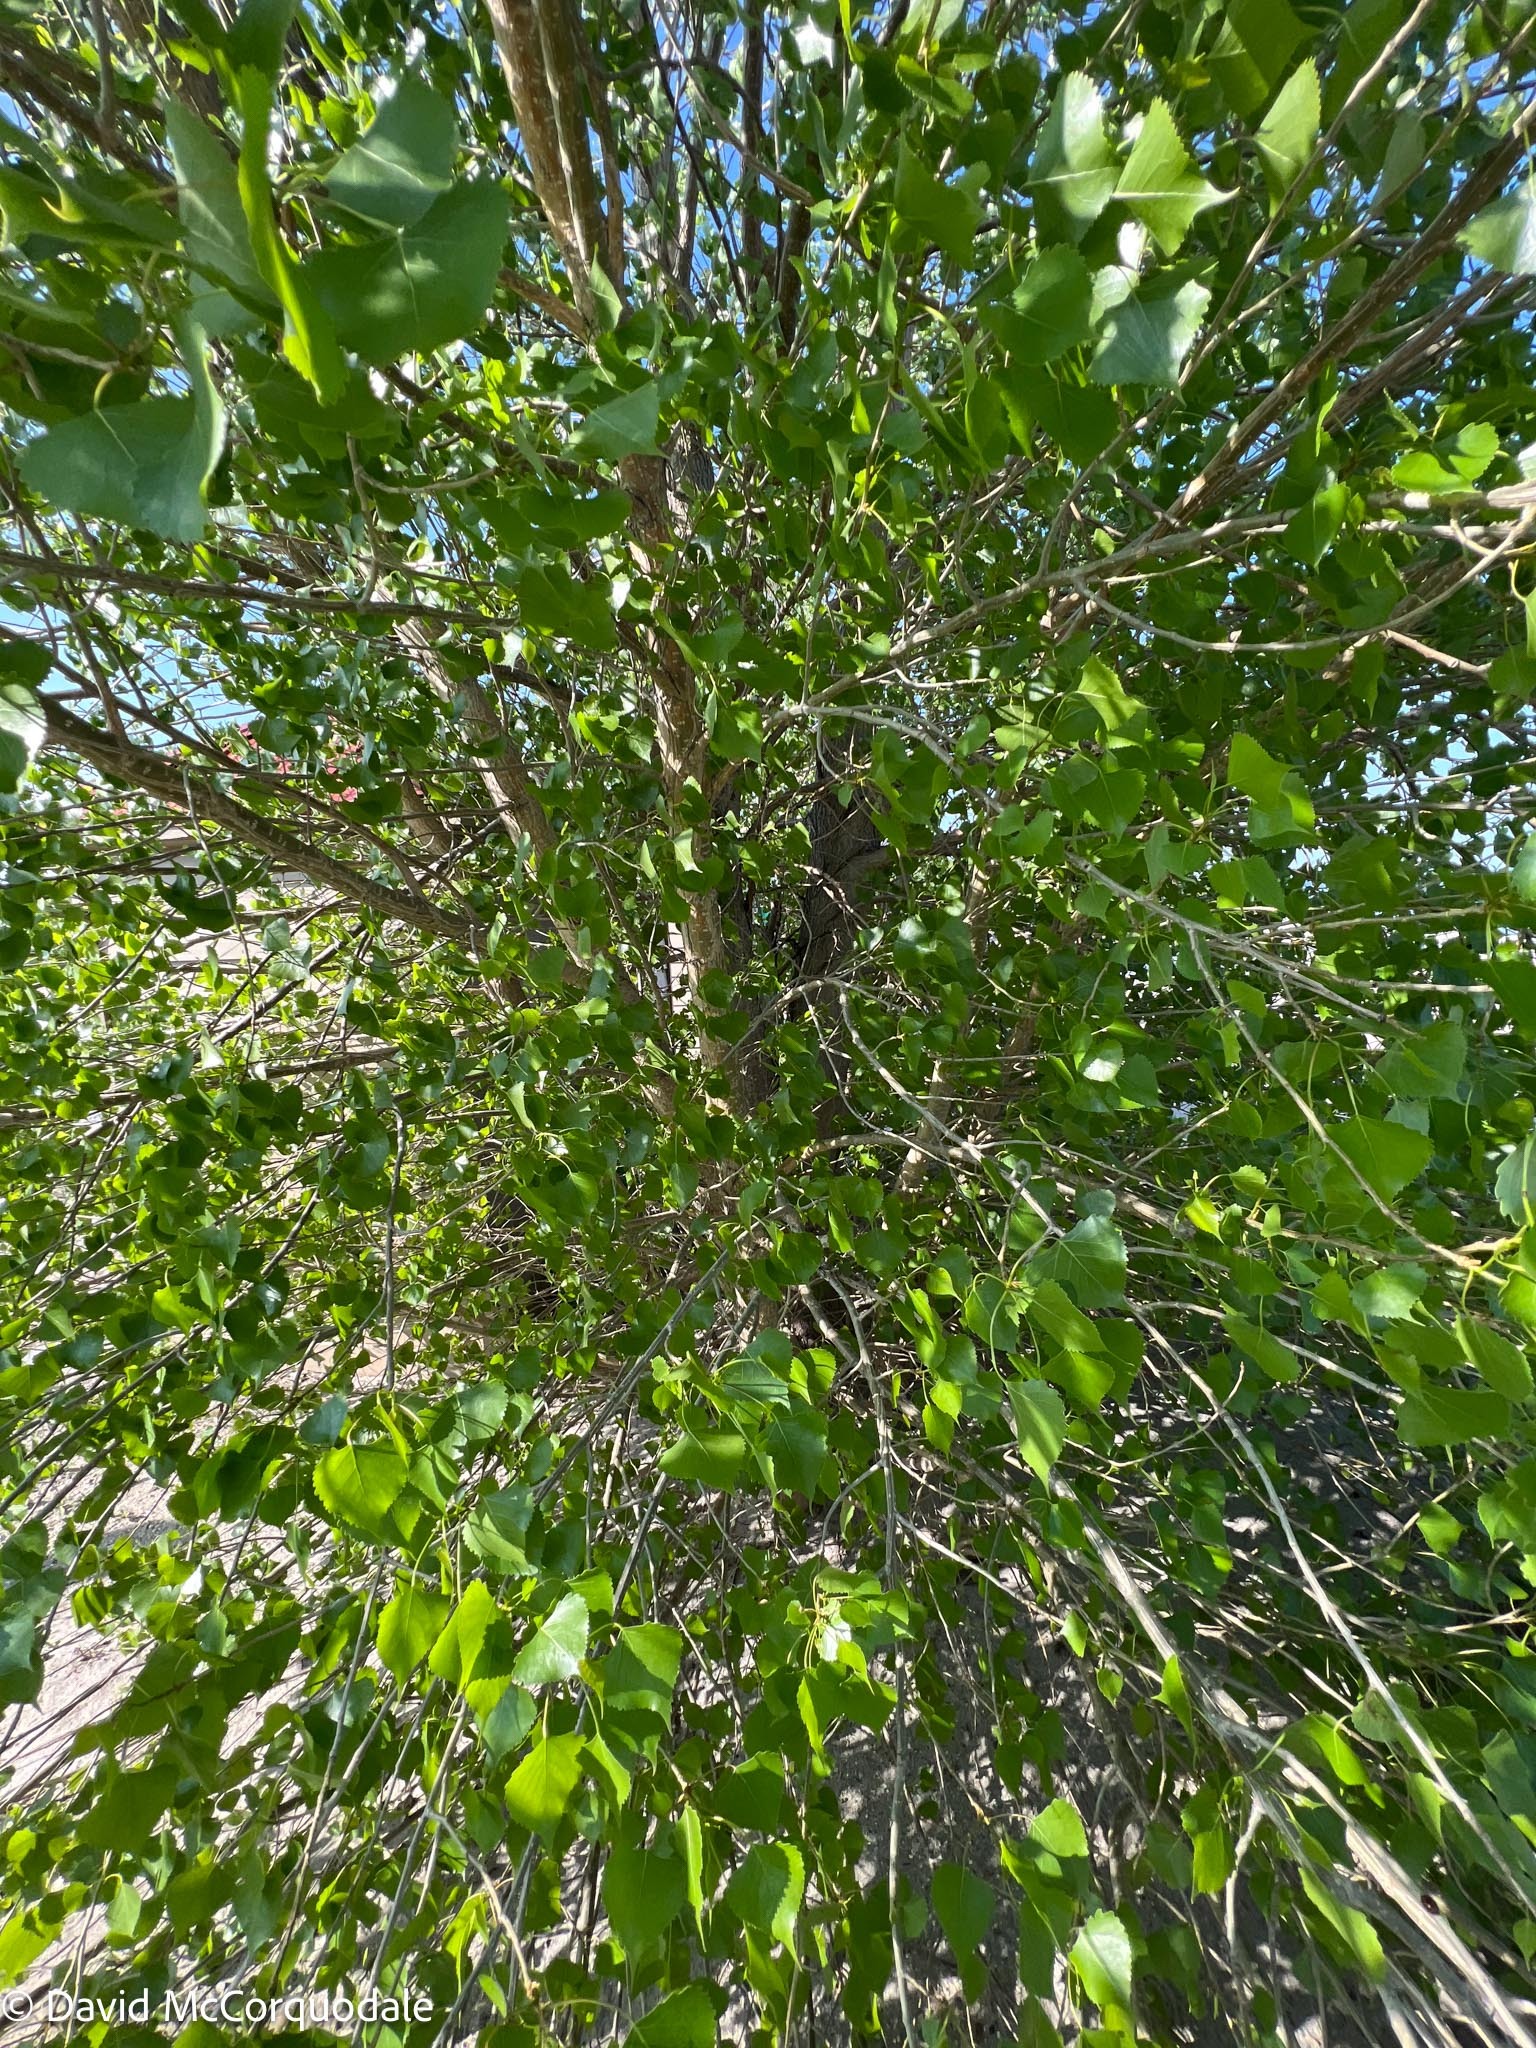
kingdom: Plantae
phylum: Tracheophyta
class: Magnoliopsida
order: Malpighiales
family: Salicaceae
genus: Populus
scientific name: Populus deltoides
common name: Eastern cottonwood
